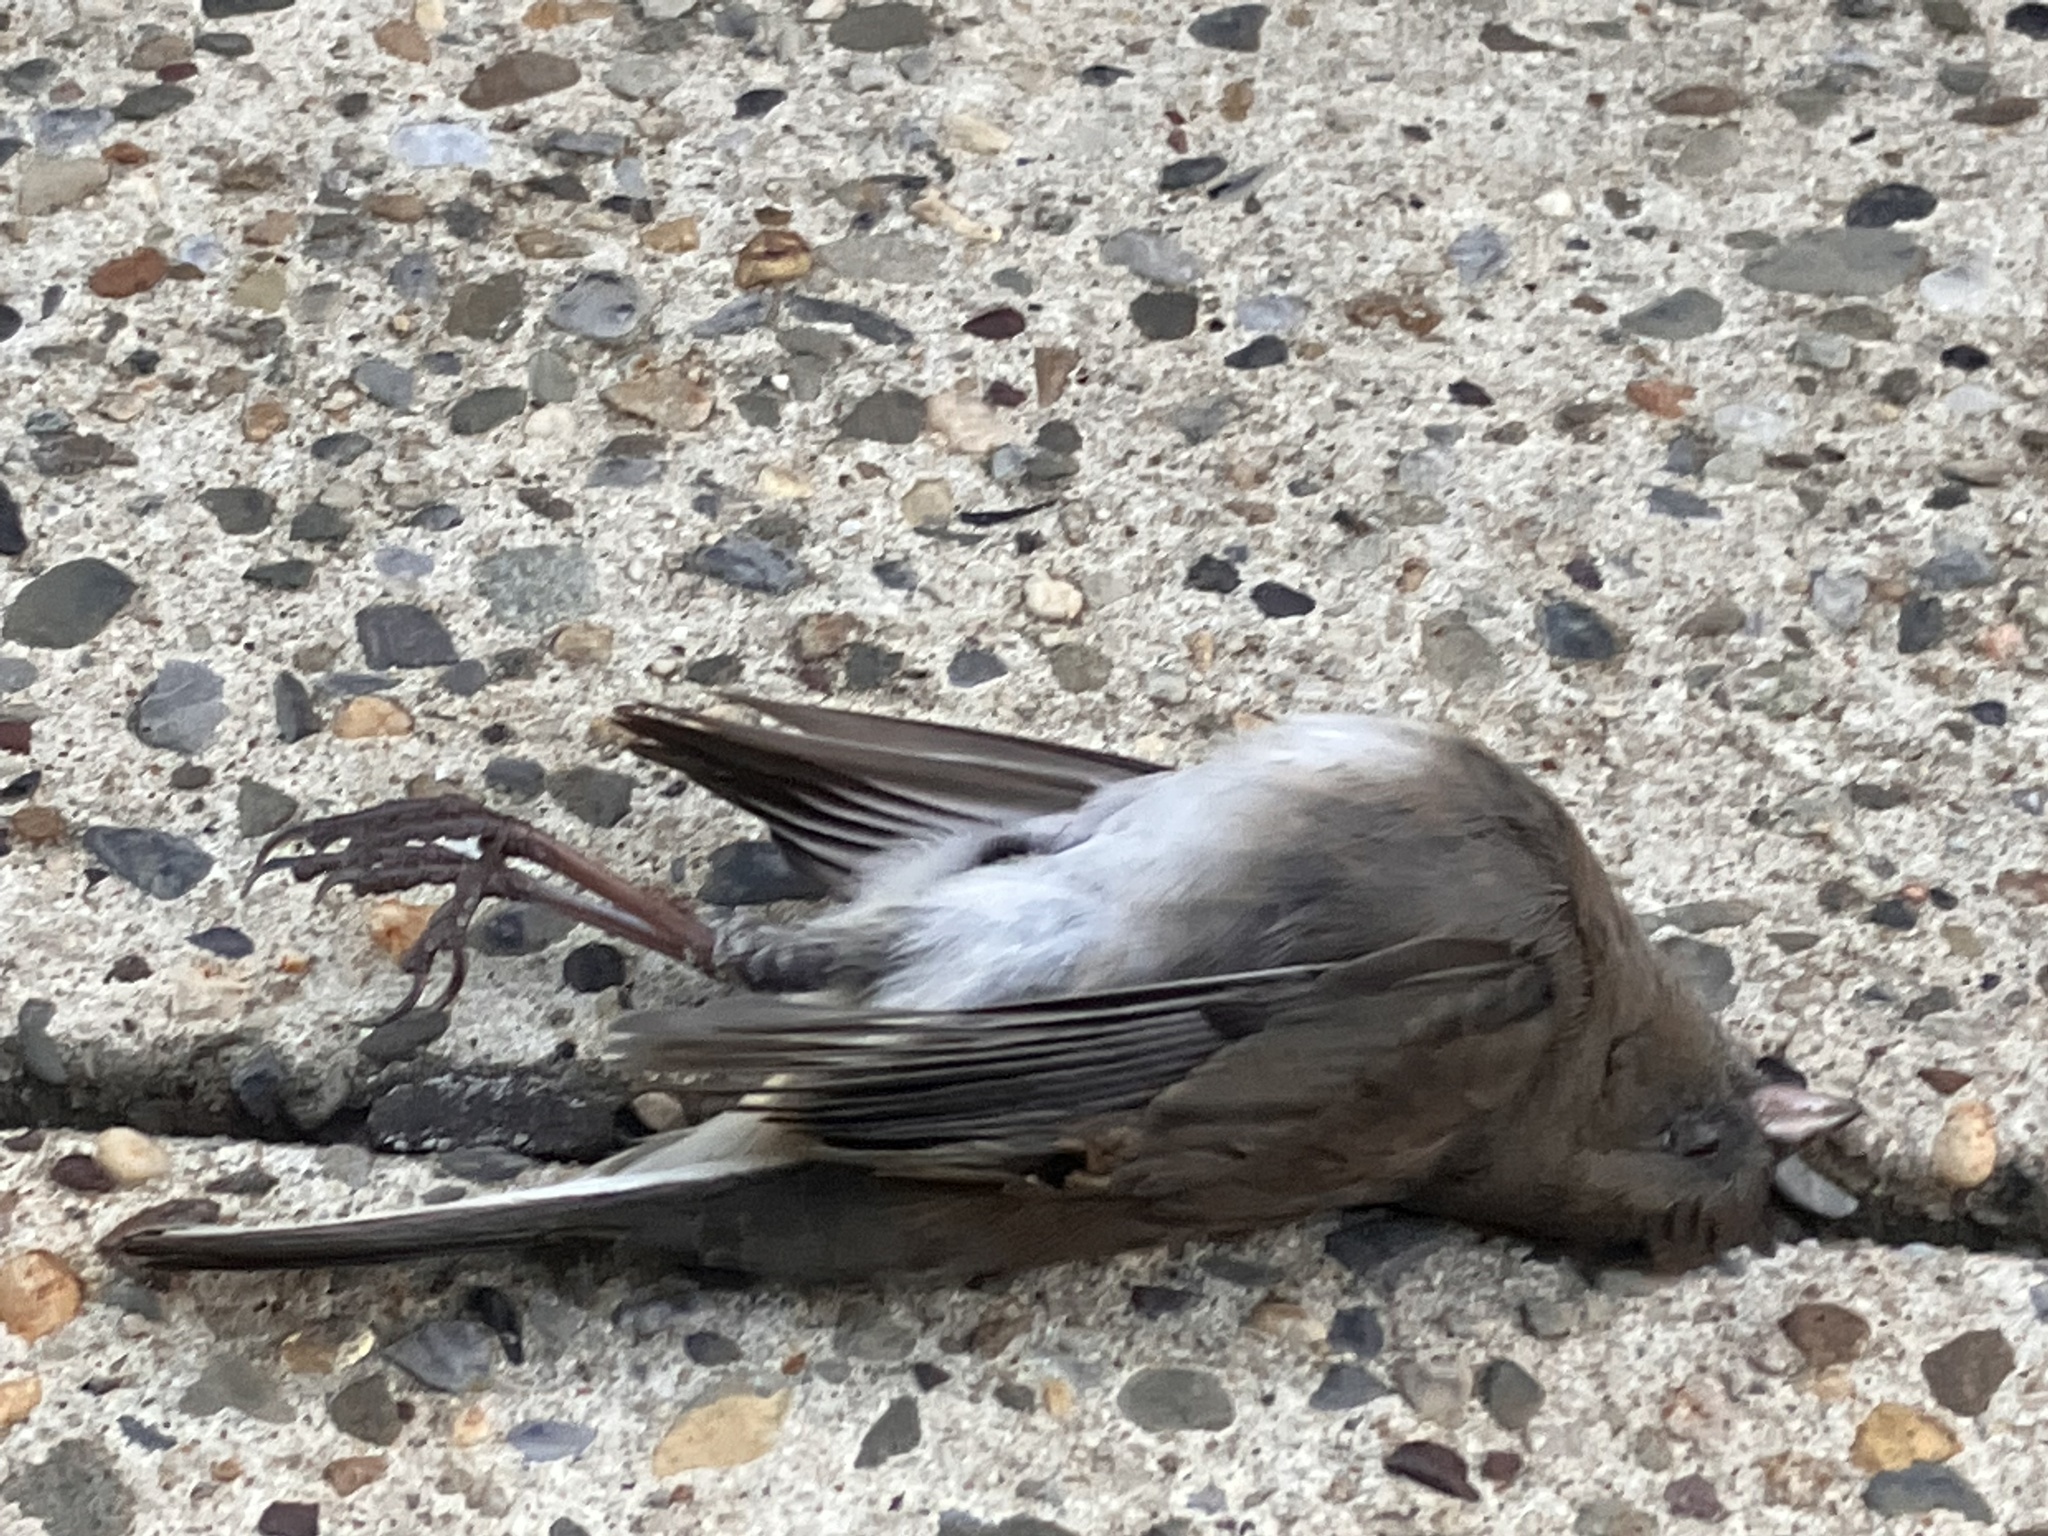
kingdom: Animalia
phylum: Chordata
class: Aves
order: Passeriformes
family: Passerellidae
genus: Junco
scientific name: Junco hyemalis
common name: Dark-eyed junco
